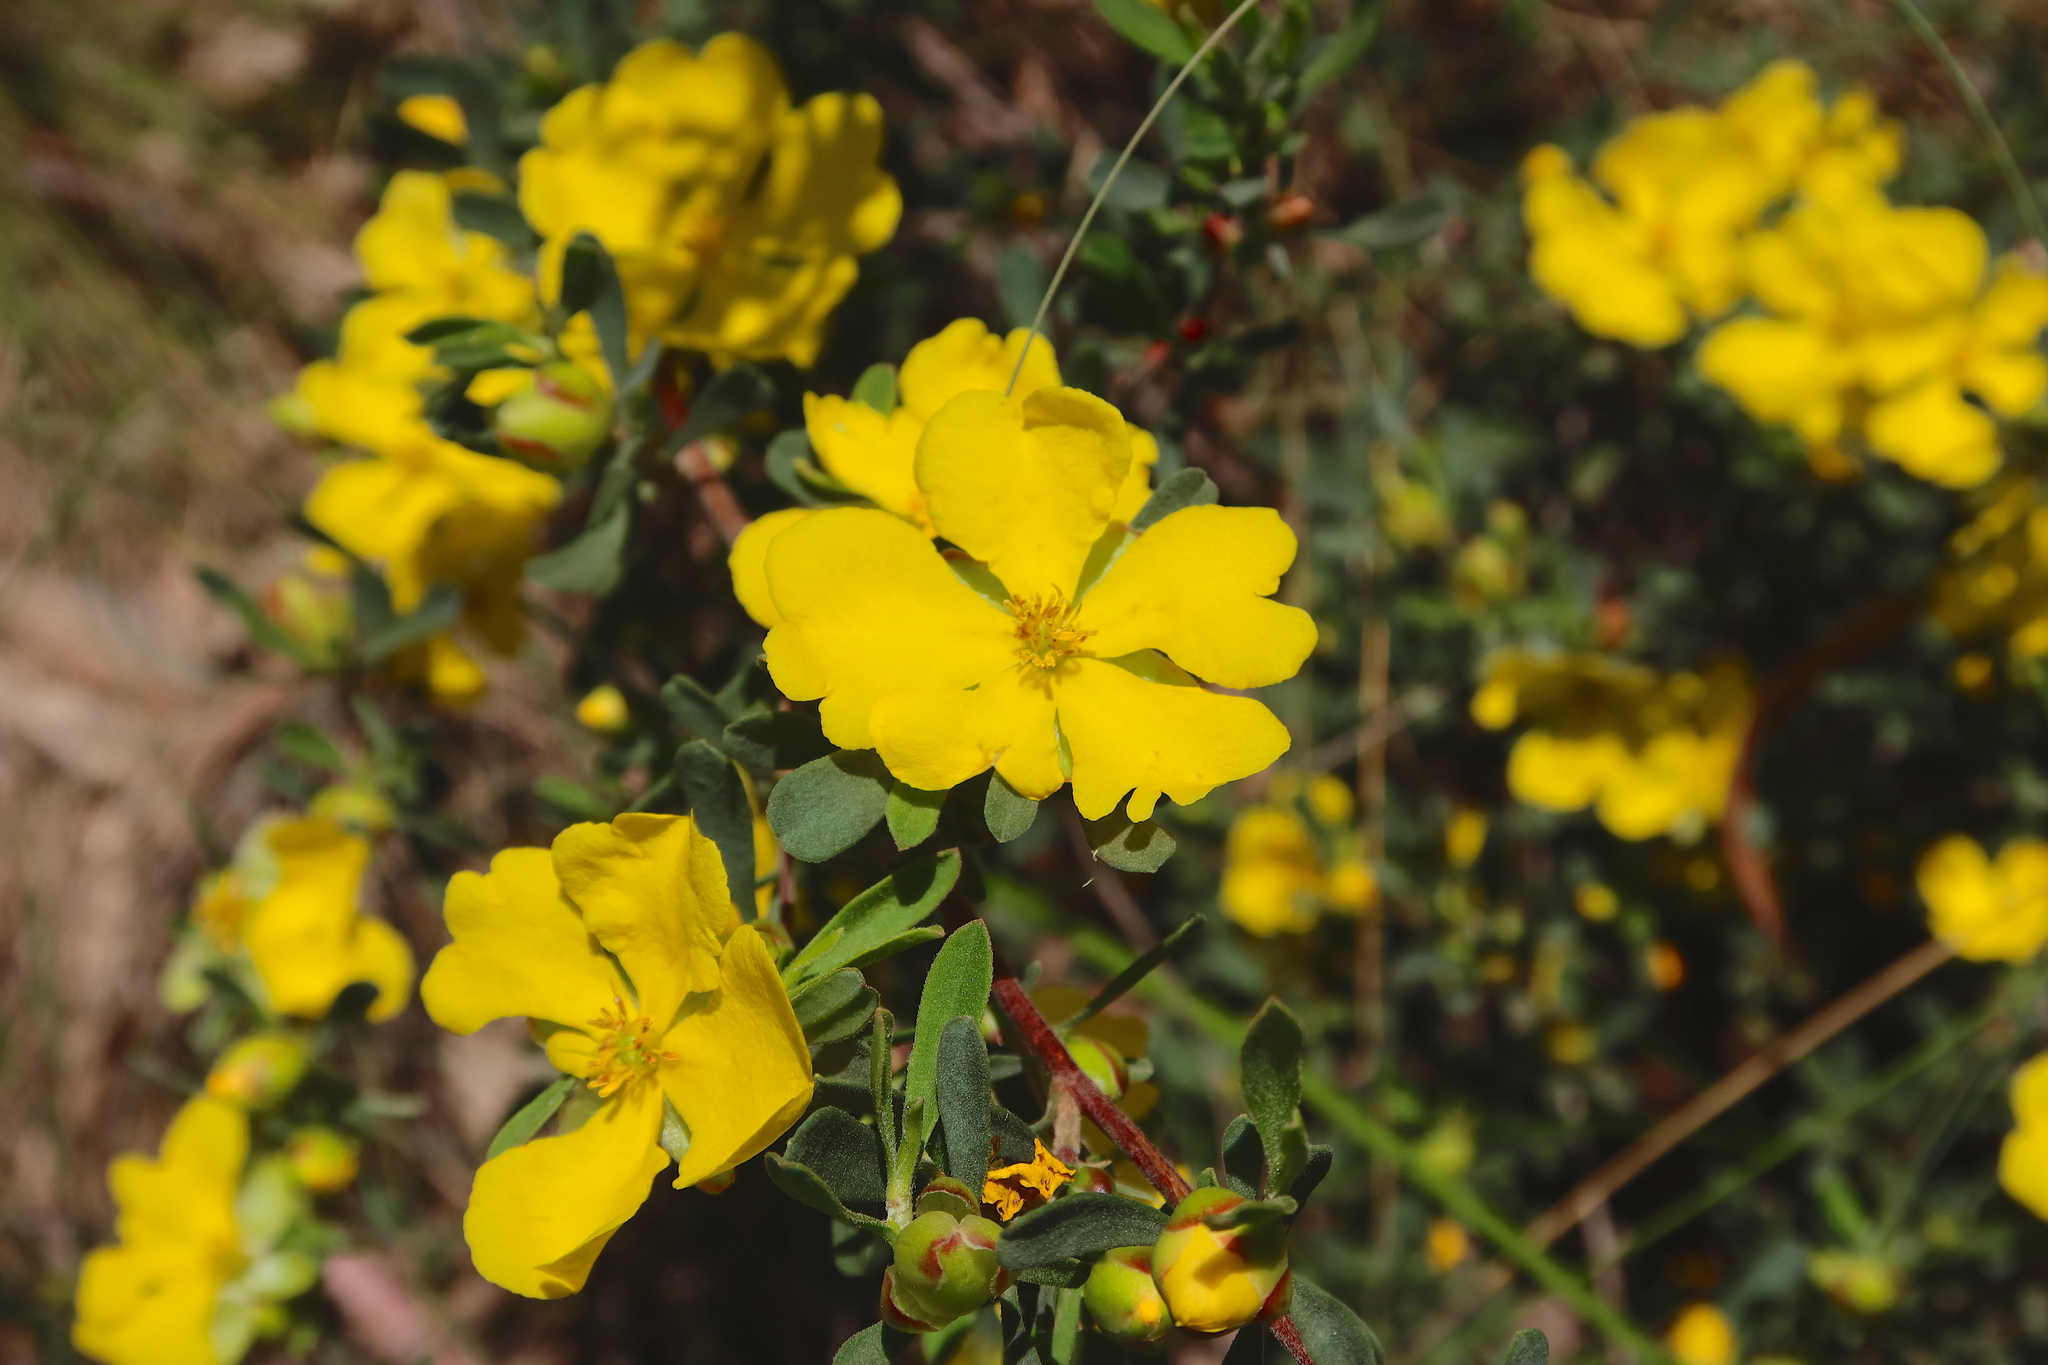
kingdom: Plantae
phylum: Tracheophyta
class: Magnoliopsida
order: Dilleniales
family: Dilleniaceae
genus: Hibbertia
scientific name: Hibbertia obtusifolia
